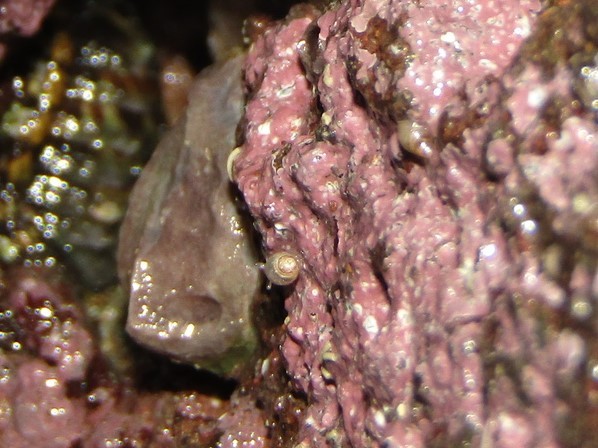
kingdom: Animalia
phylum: Mollusca
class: Gastropoda
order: Ellobiida
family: Ellobiidae
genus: Leuconopsis
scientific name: Leuconopsis obsoleta
